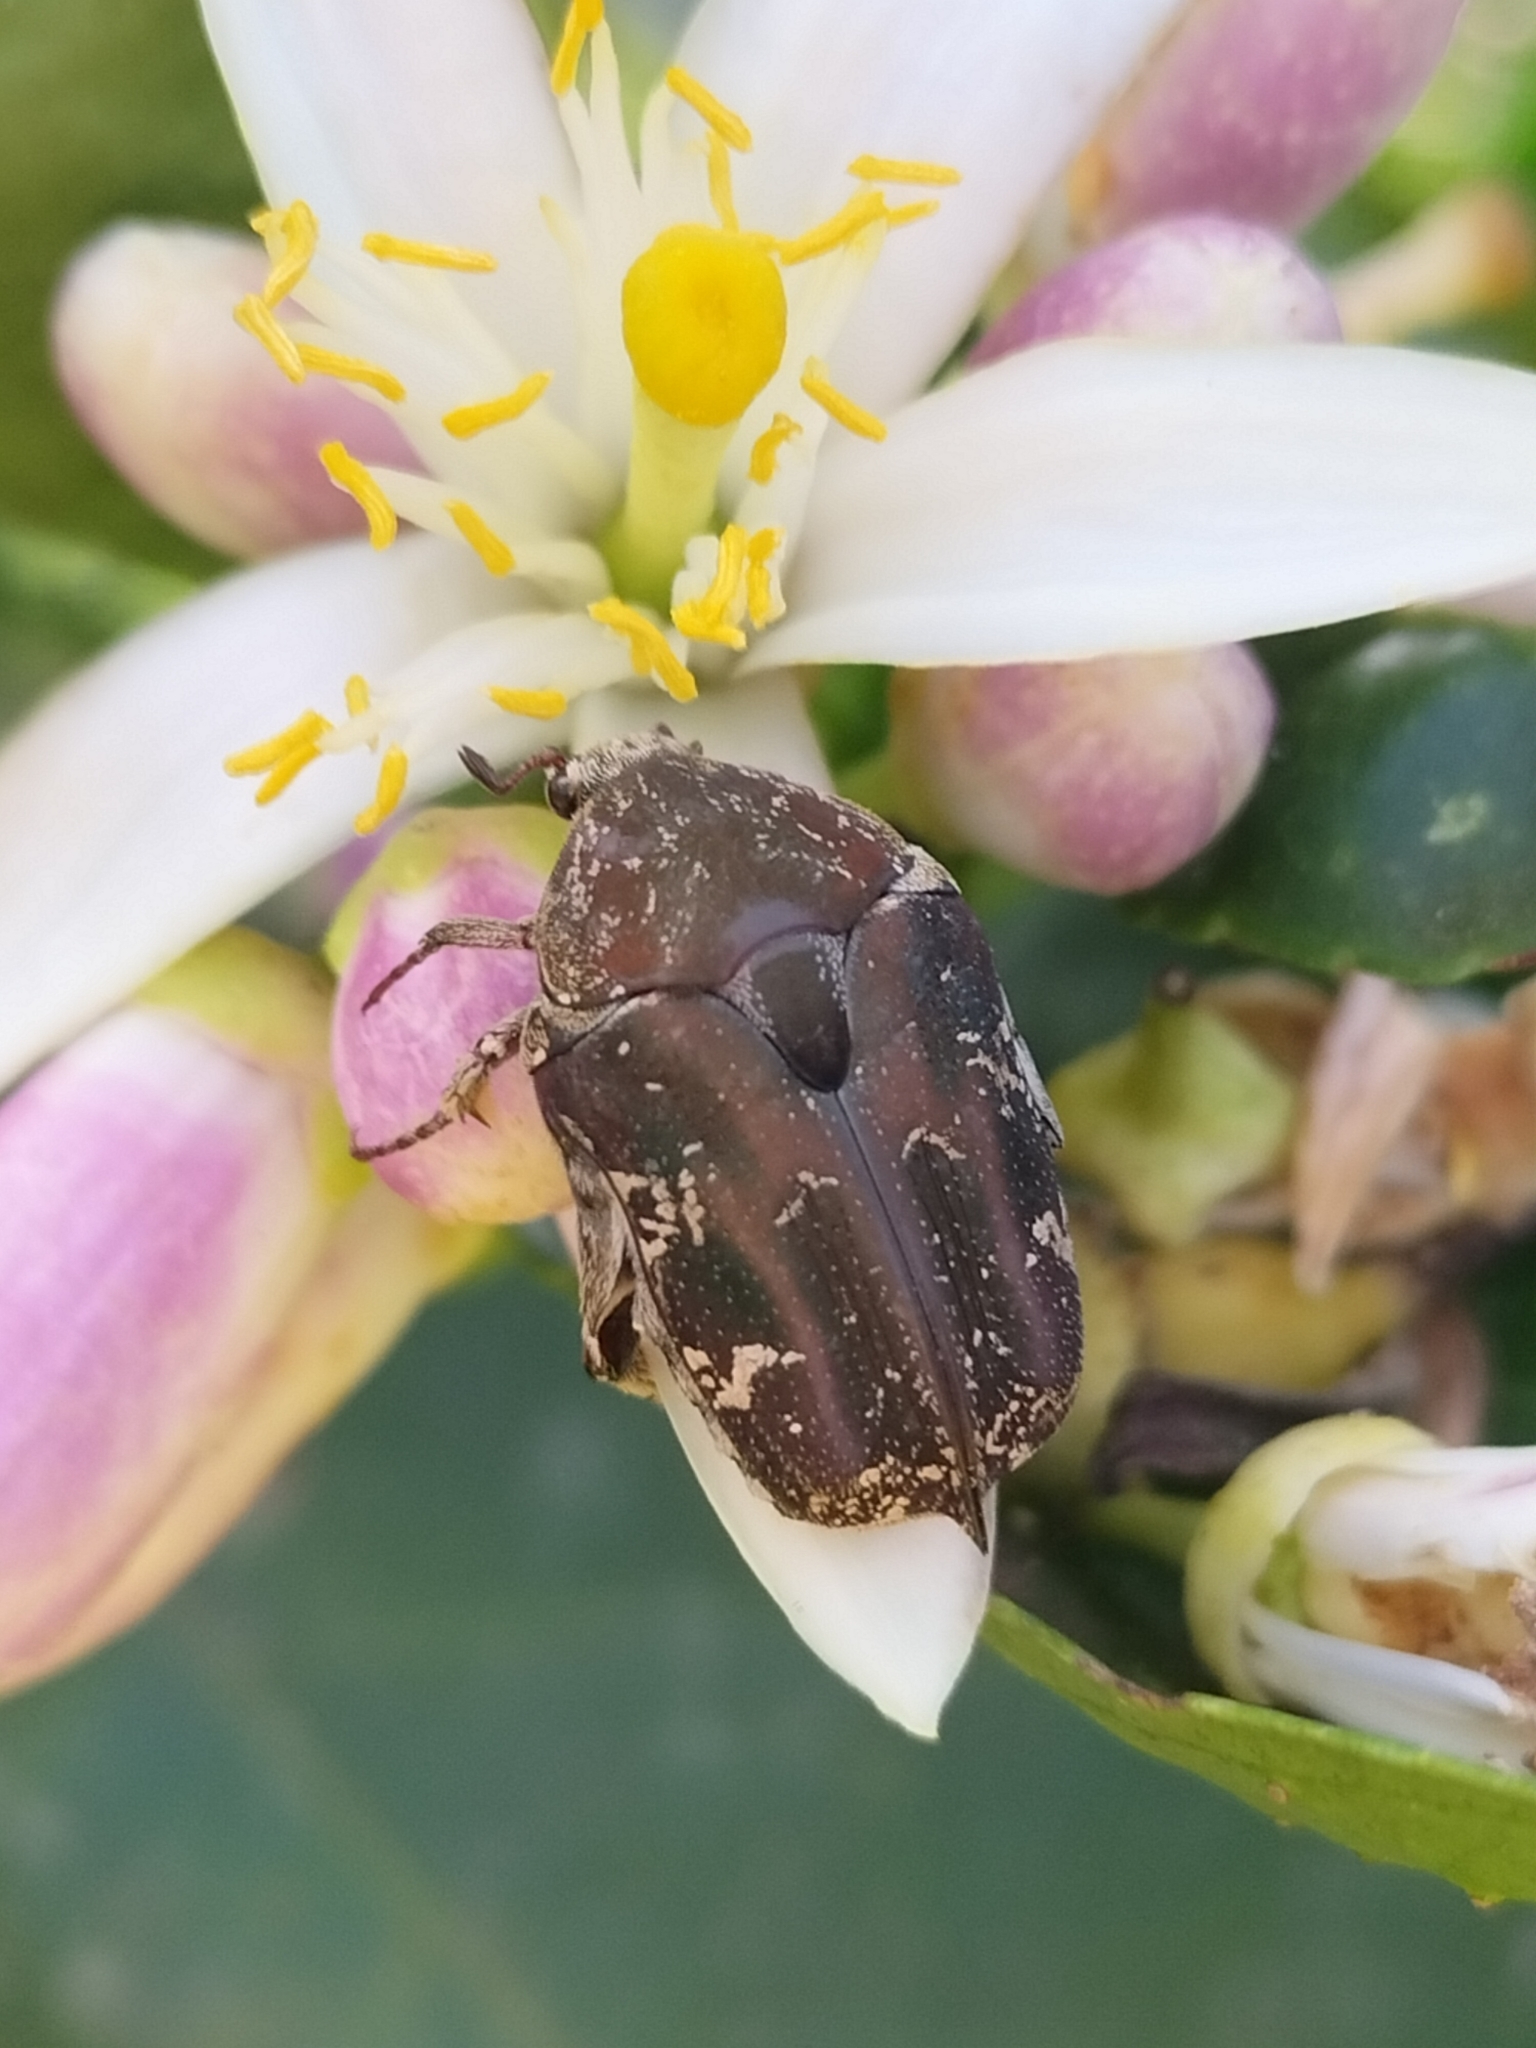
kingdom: Animalia
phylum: Arthropoda
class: Insecta
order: Coleoptera
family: Scarabaeidae
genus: Protaetia
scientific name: Protaetia fusca
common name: Mango flower beetle
